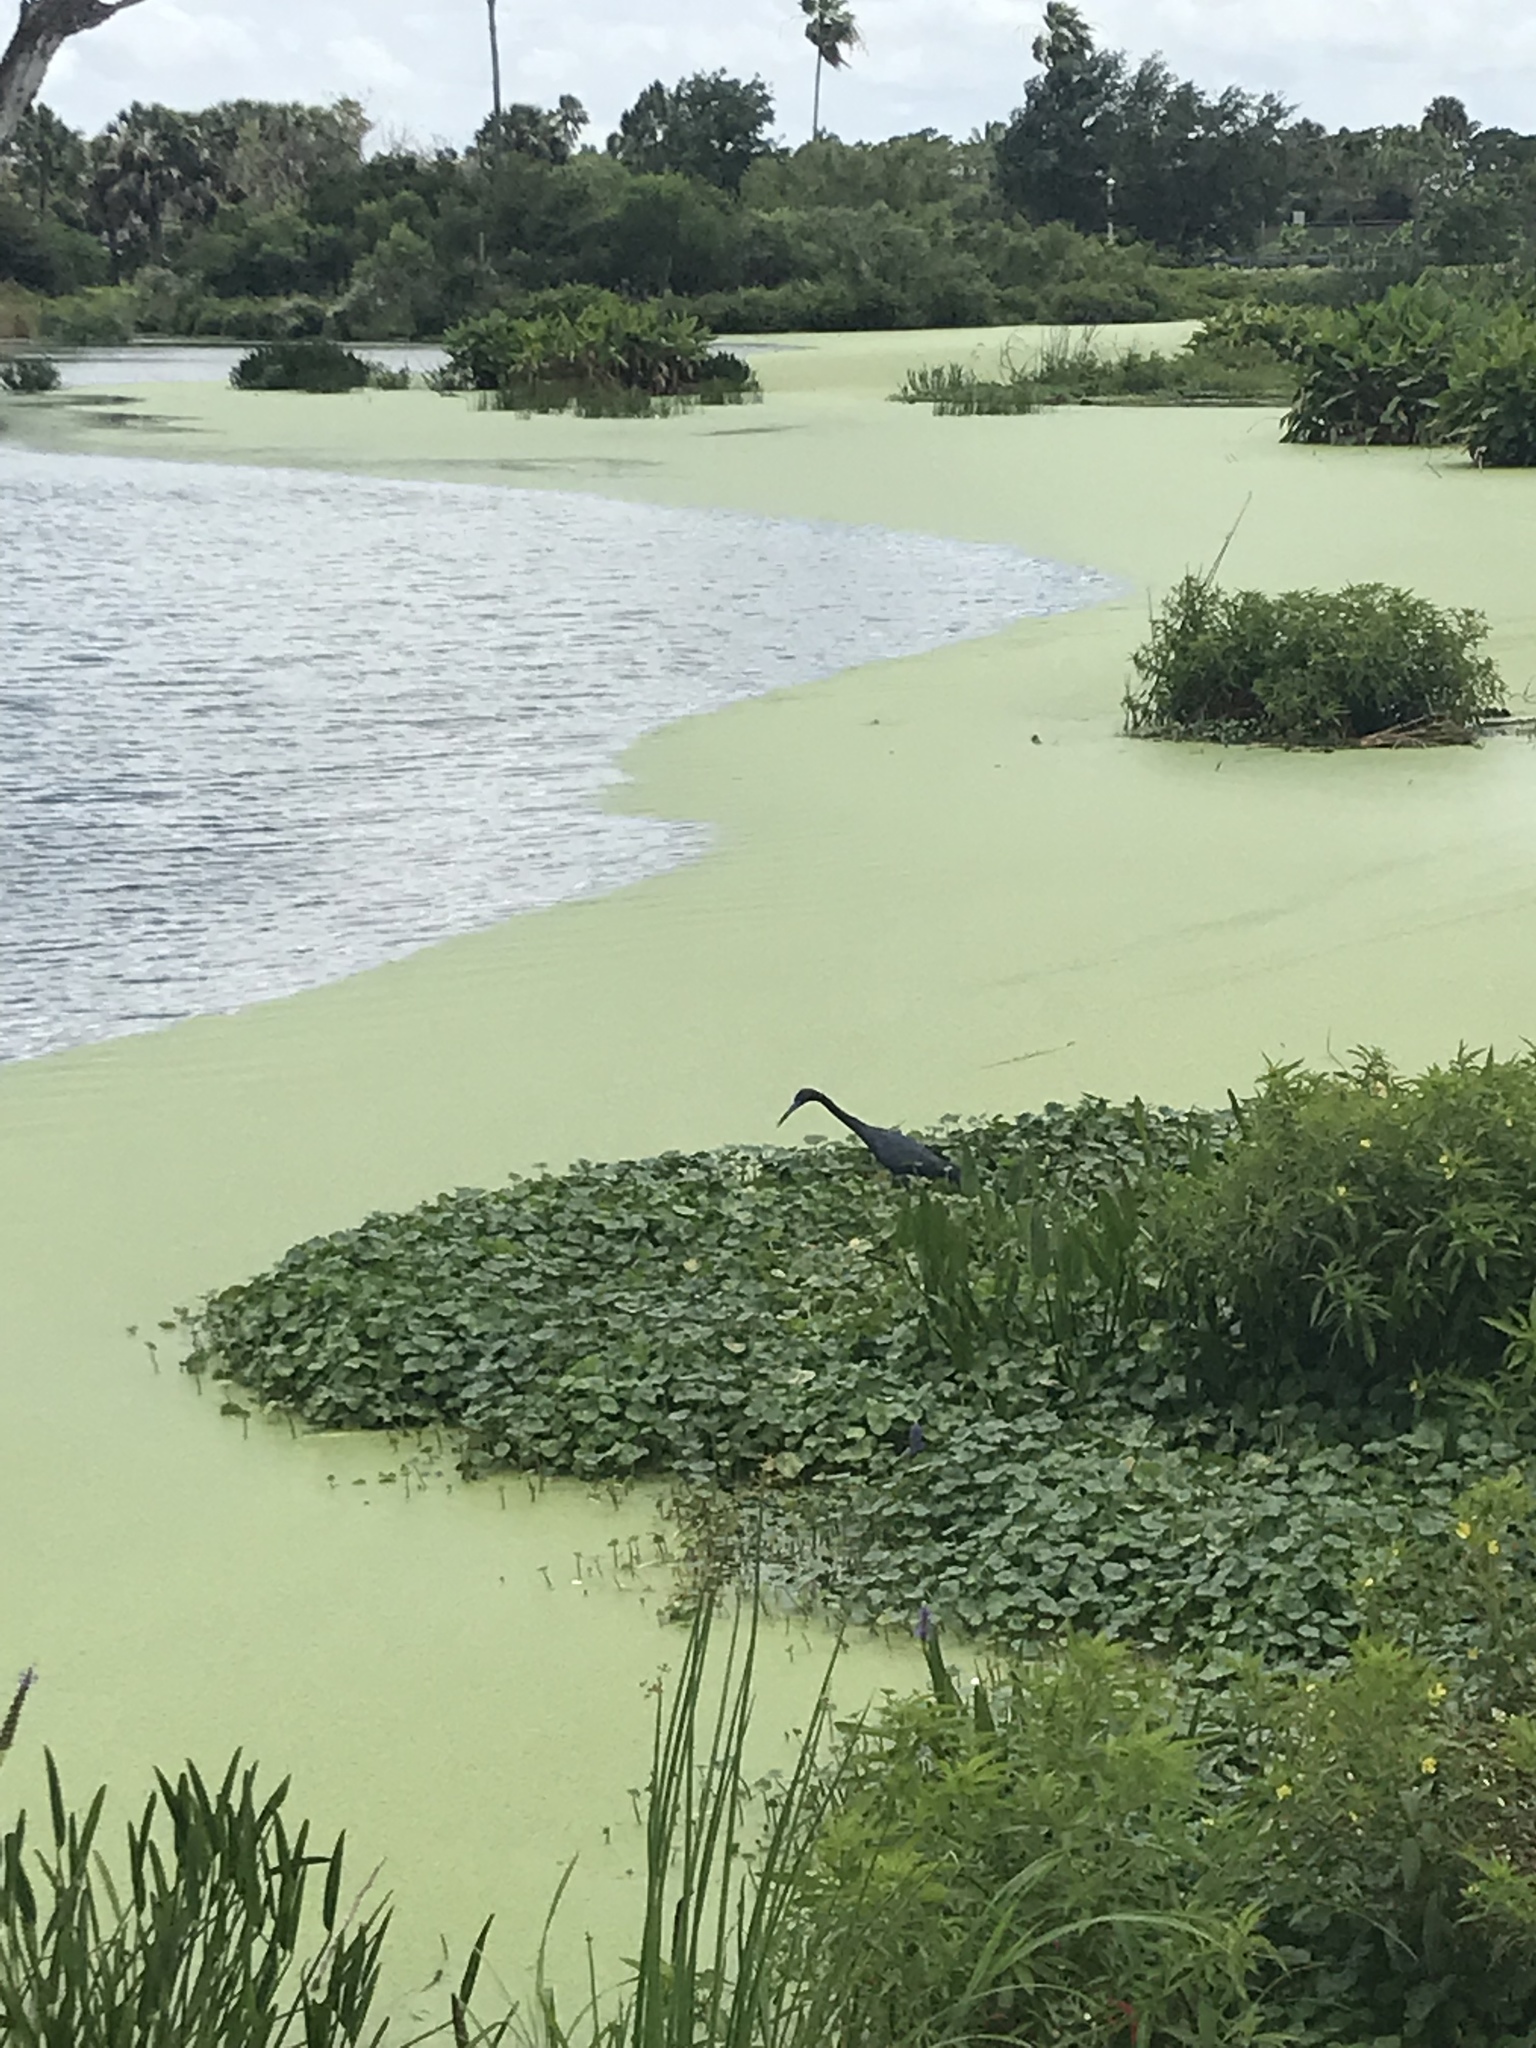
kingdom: Animalia
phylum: Chordata
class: Aves
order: Pelecaniformes
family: Ardeidae
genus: Egretta
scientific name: Egretta caerulea
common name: Little blue heron
